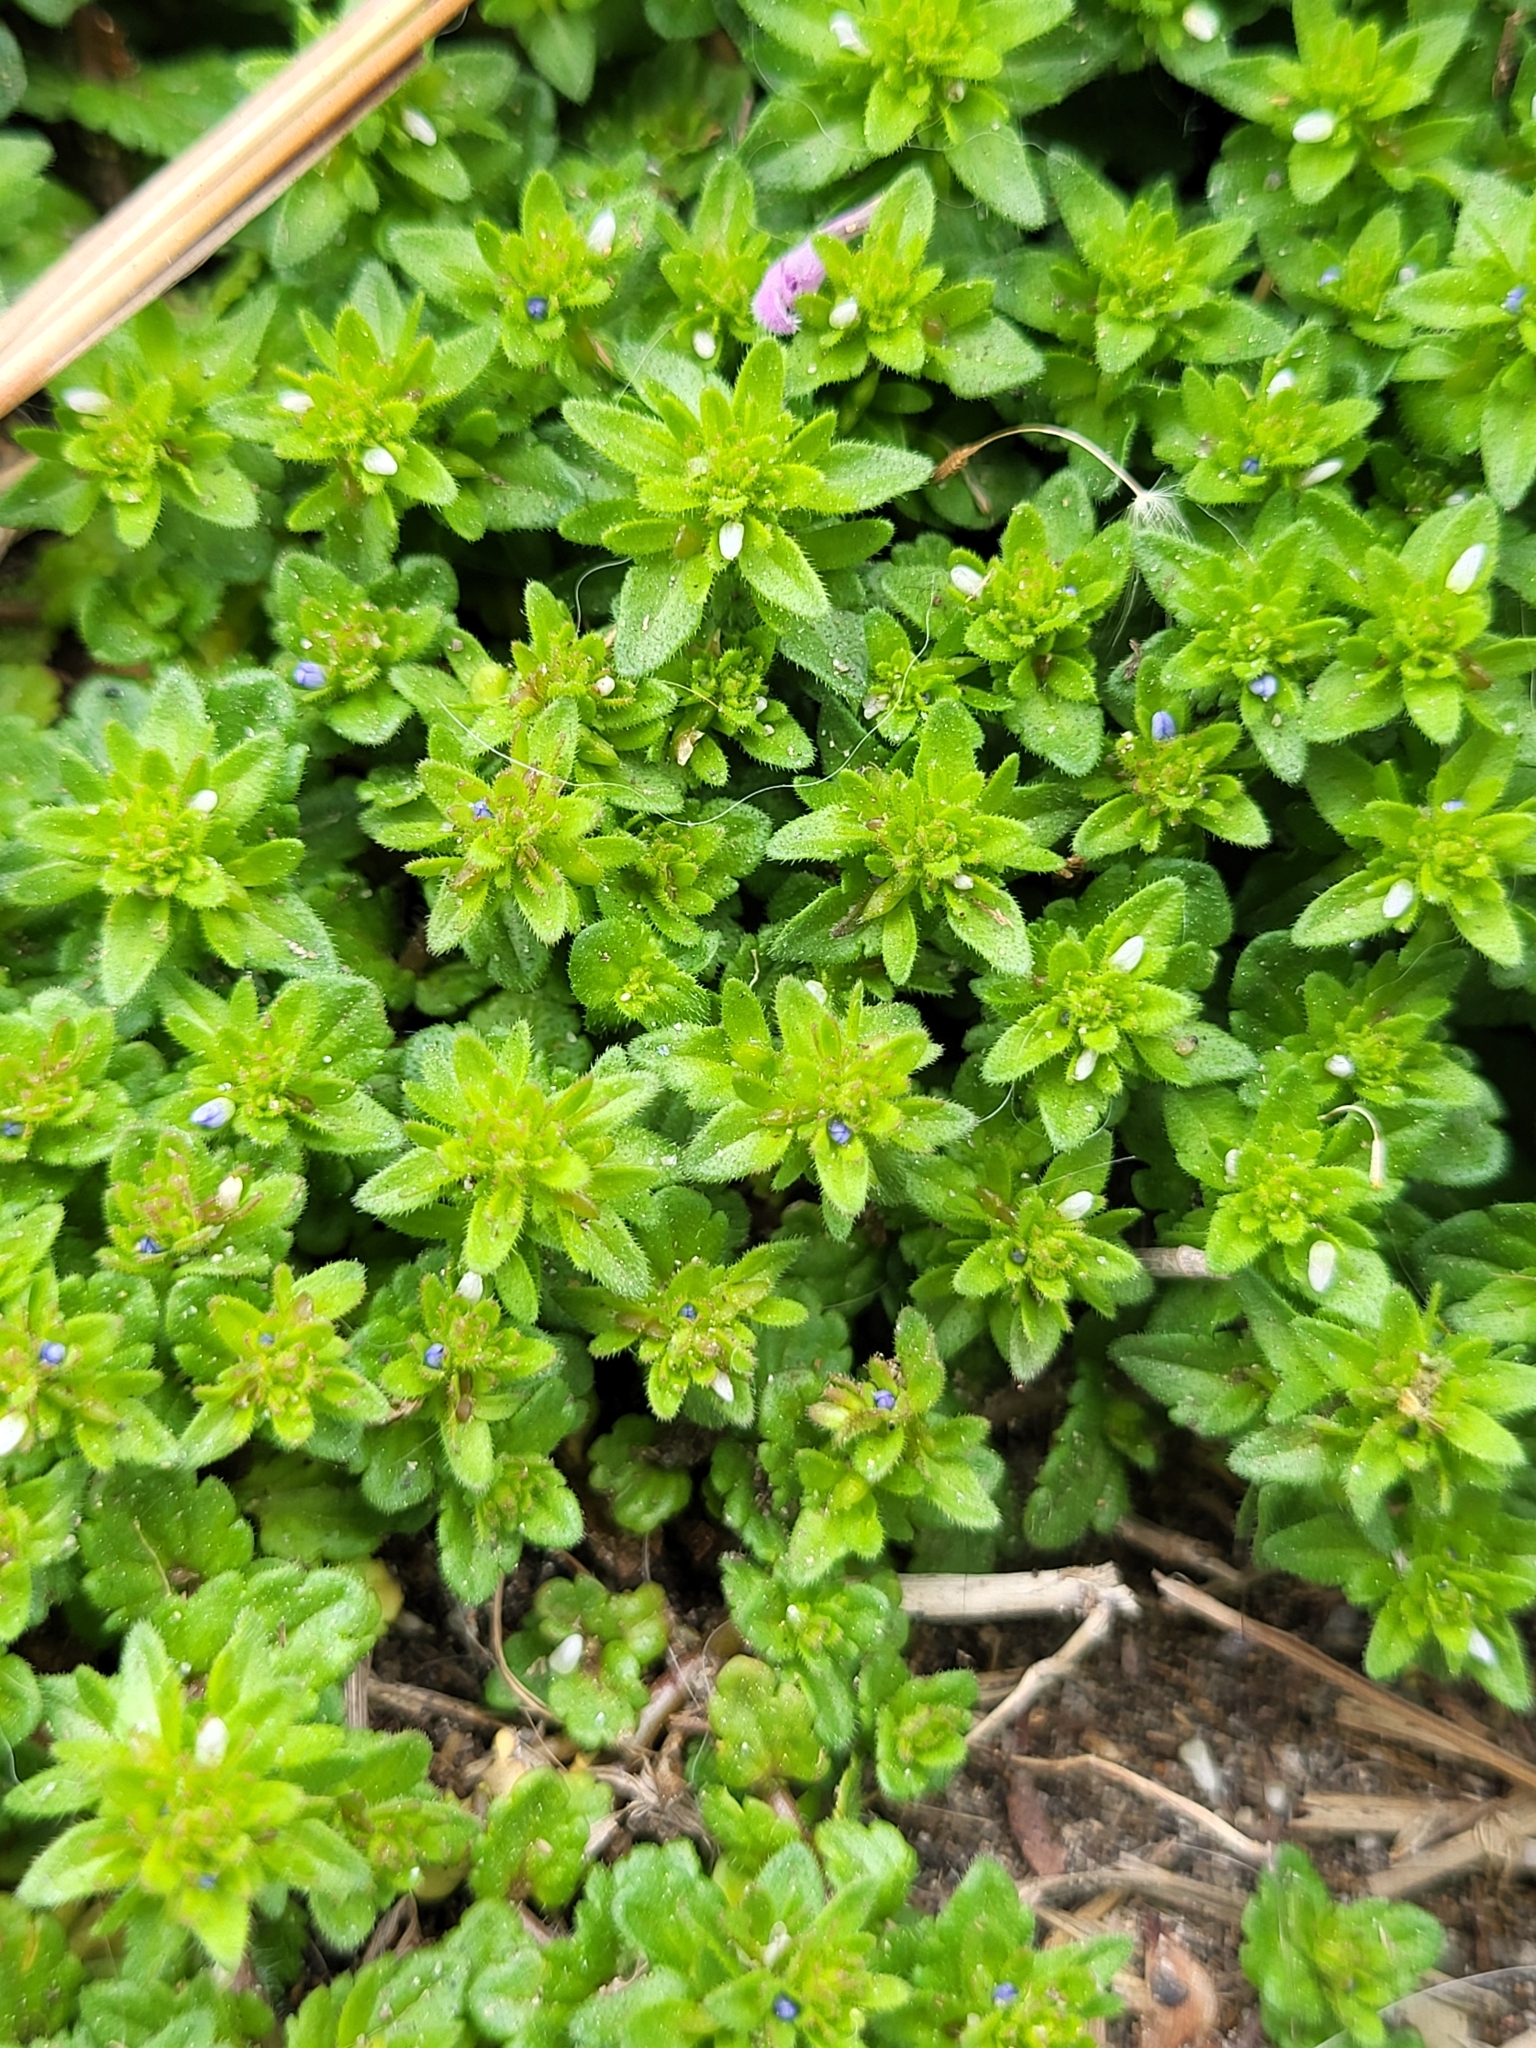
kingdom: Plantae
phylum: Tracheophyta
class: Magnoliopsida
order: Lamiales
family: Plantaginaceae
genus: Veronica
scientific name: Veronica arvensis
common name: Corn speedwell
